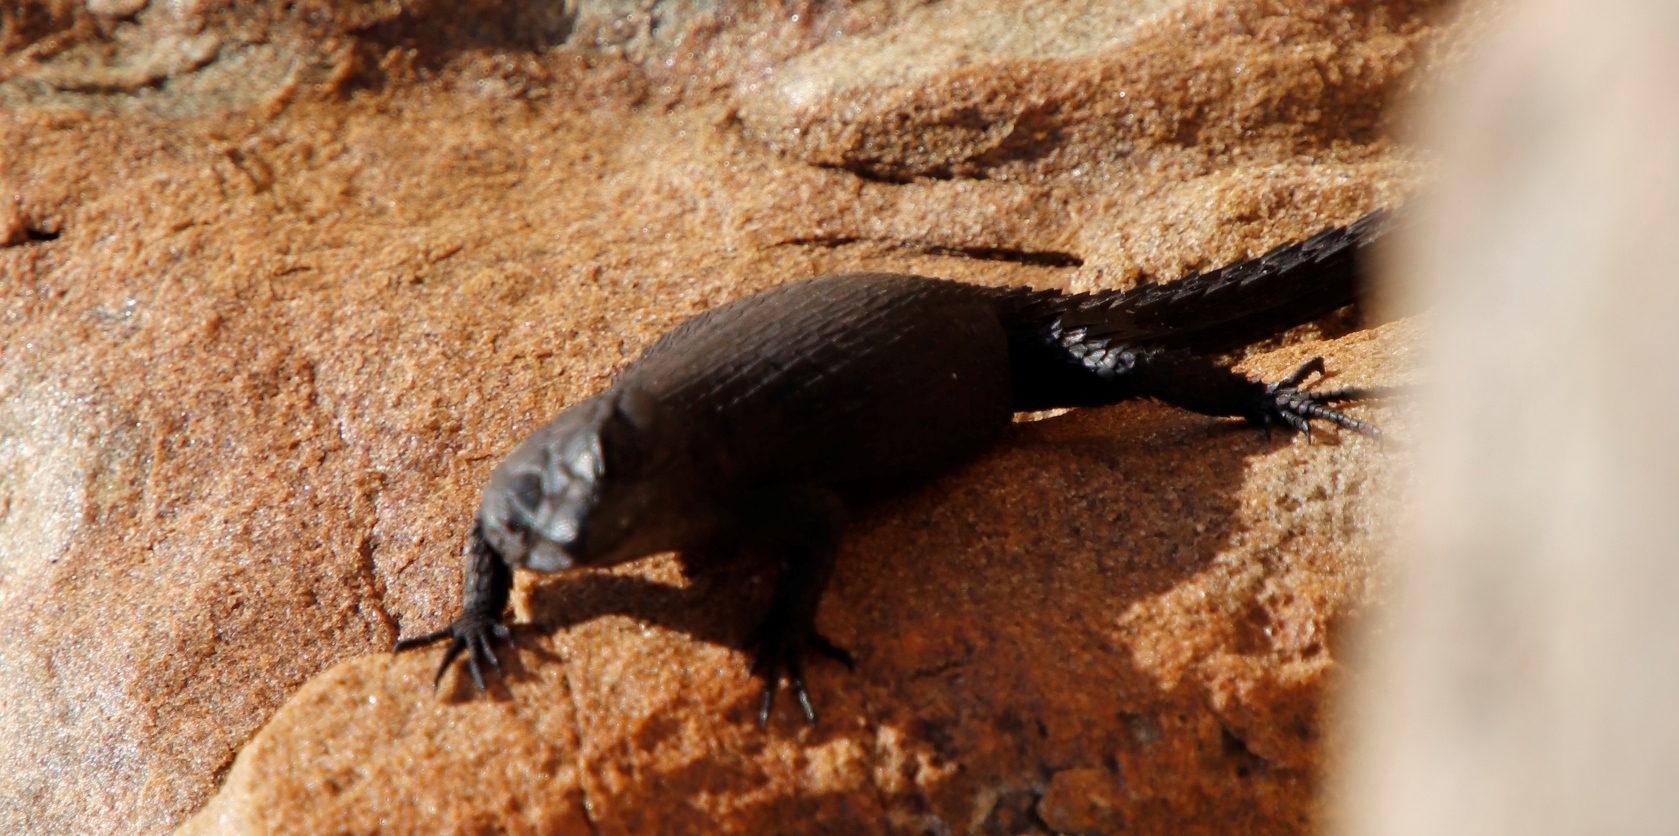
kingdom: Animalia
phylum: Chordata
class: Squamata
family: Cordylidae
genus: Cordylus
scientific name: Cordylus niger
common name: Black girdled lizard
